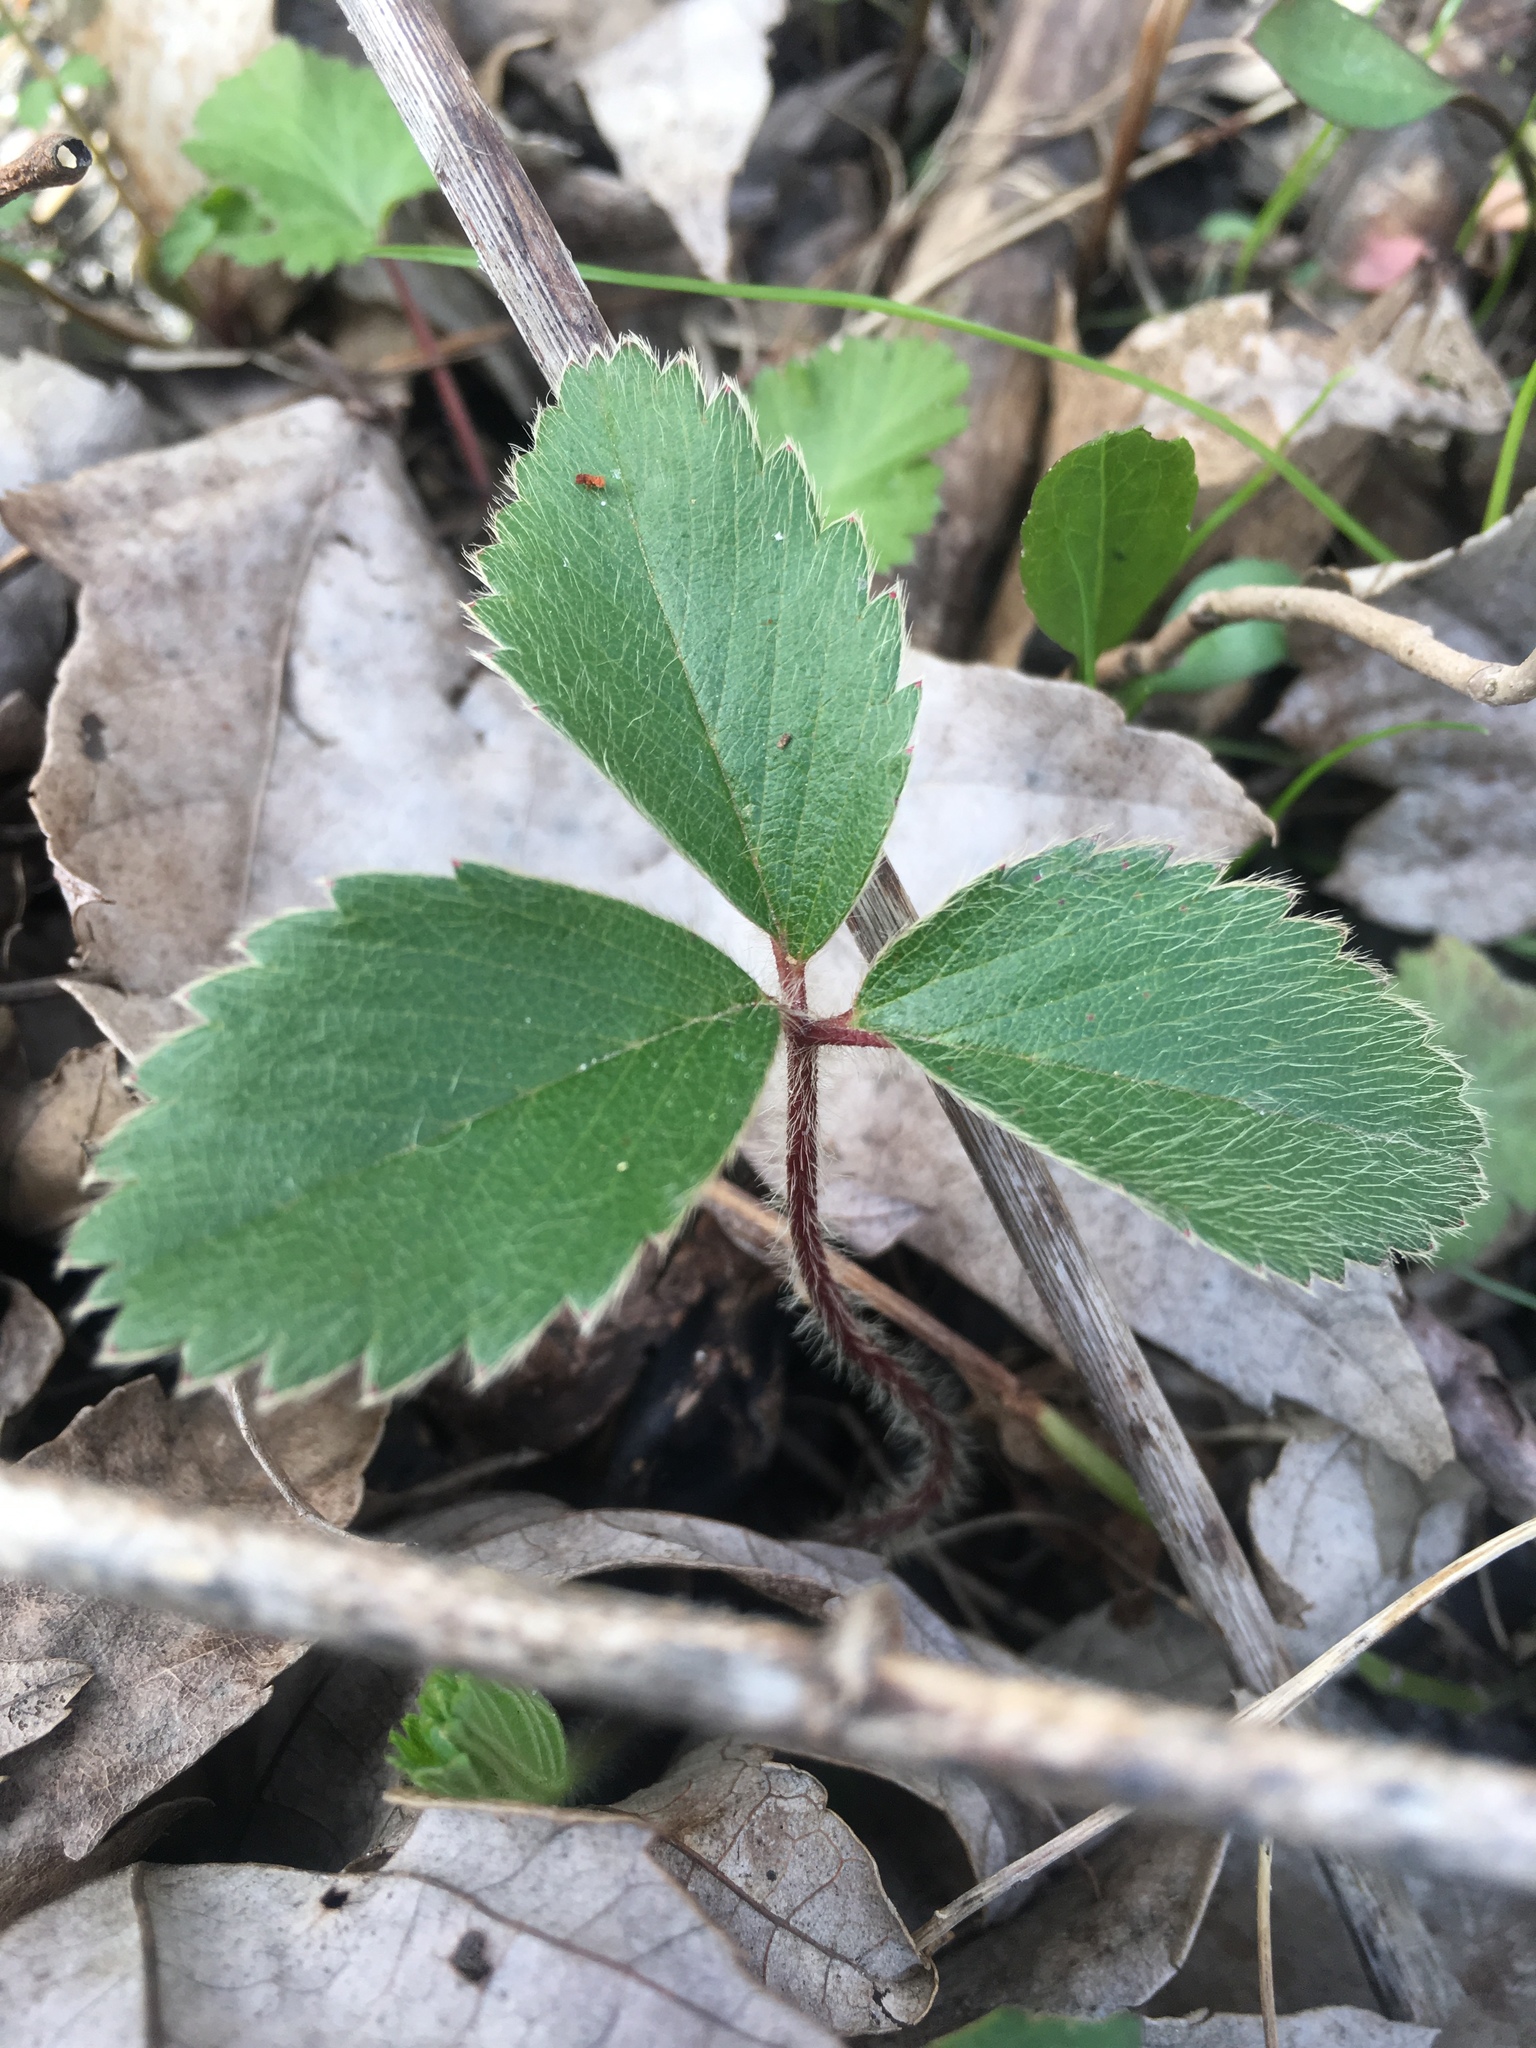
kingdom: Plantae
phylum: Tracheophyta
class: Magnoliopsida
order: Rosales
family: Rosaceae
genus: Fragaria
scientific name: Fragaria virginiana
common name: Thickleaved wild strawberry
